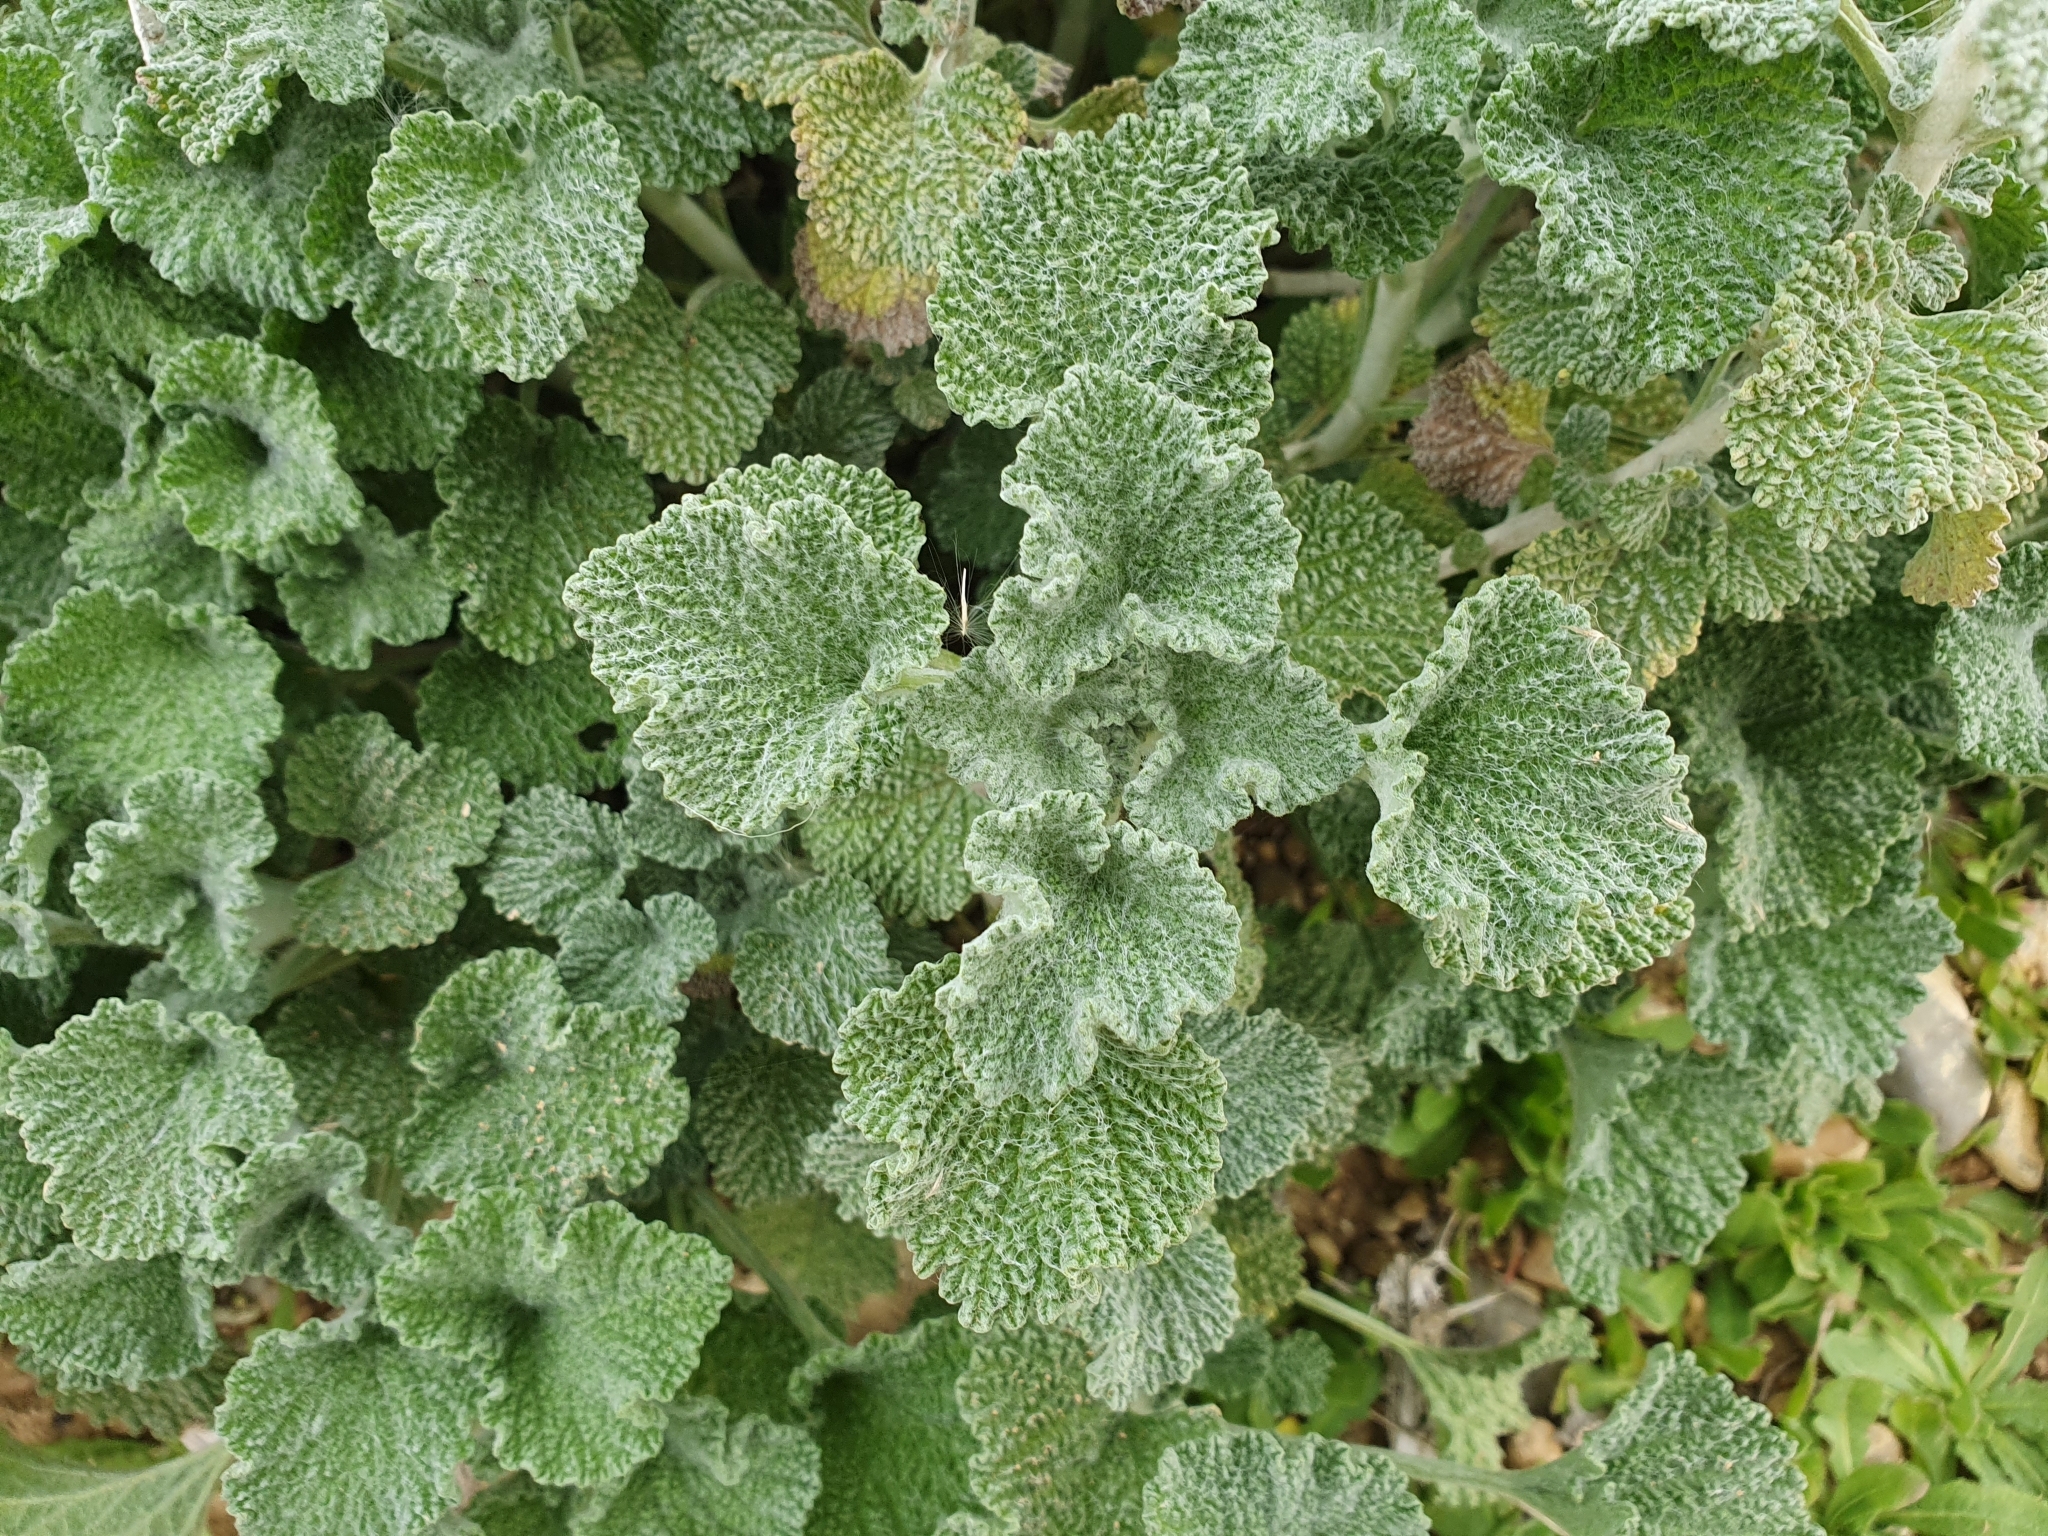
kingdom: Plantae
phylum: Tracheophyta
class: Magnoliopsida
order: Lamiales
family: Lamiaceae
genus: Marrubium
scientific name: Marrubium vulgare
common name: Horehound
